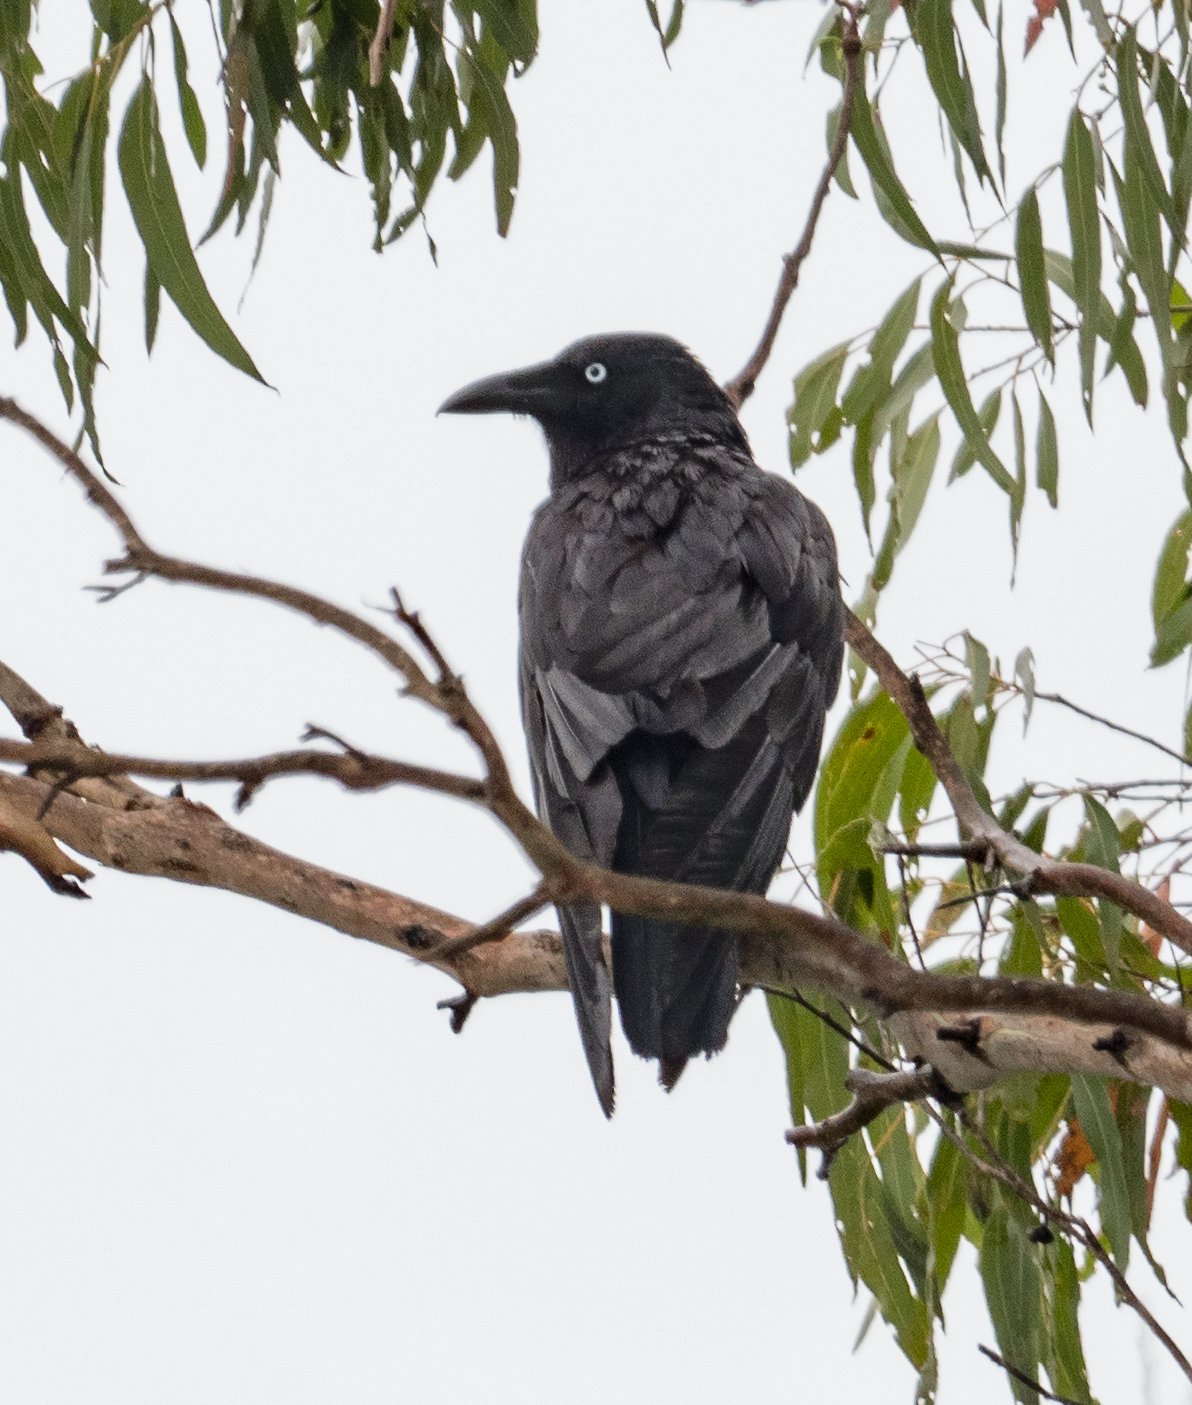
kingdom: Animalia
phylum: Chordata
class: Aves
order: Passeriformes
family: Corvidae
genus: Corvus
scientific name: Corvus tasmanicus
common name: Forest raven
